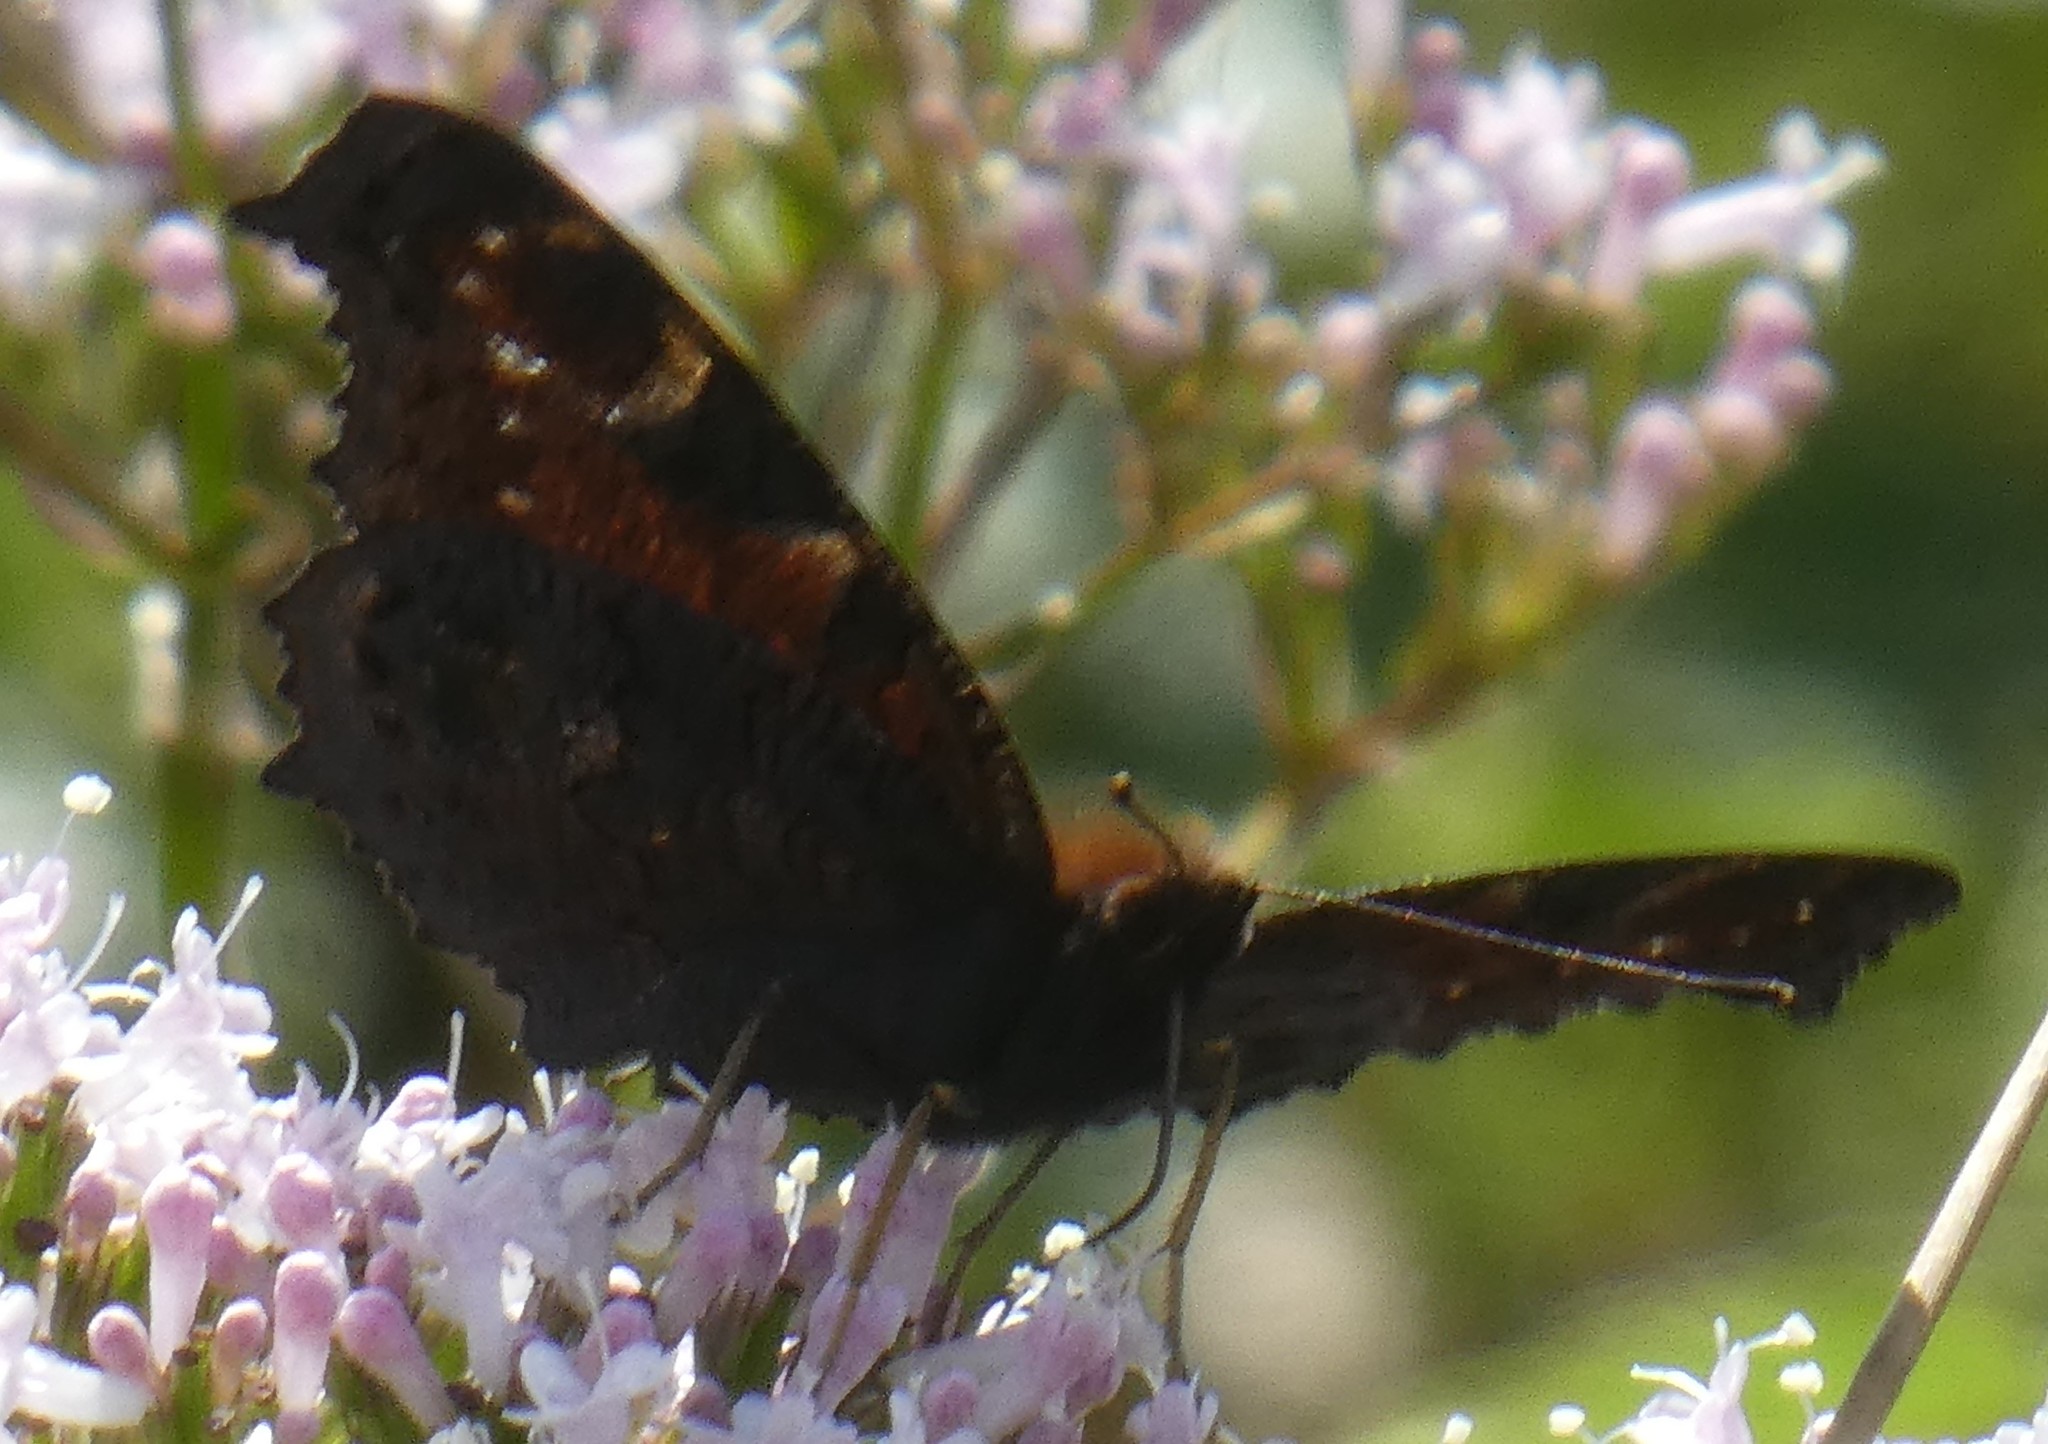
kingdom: Animalia
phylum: Arthropoda
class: Insecta
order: Lepidoptera
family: Nymphalidae
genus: Aglais
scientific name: Aglais io
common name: Peacock
